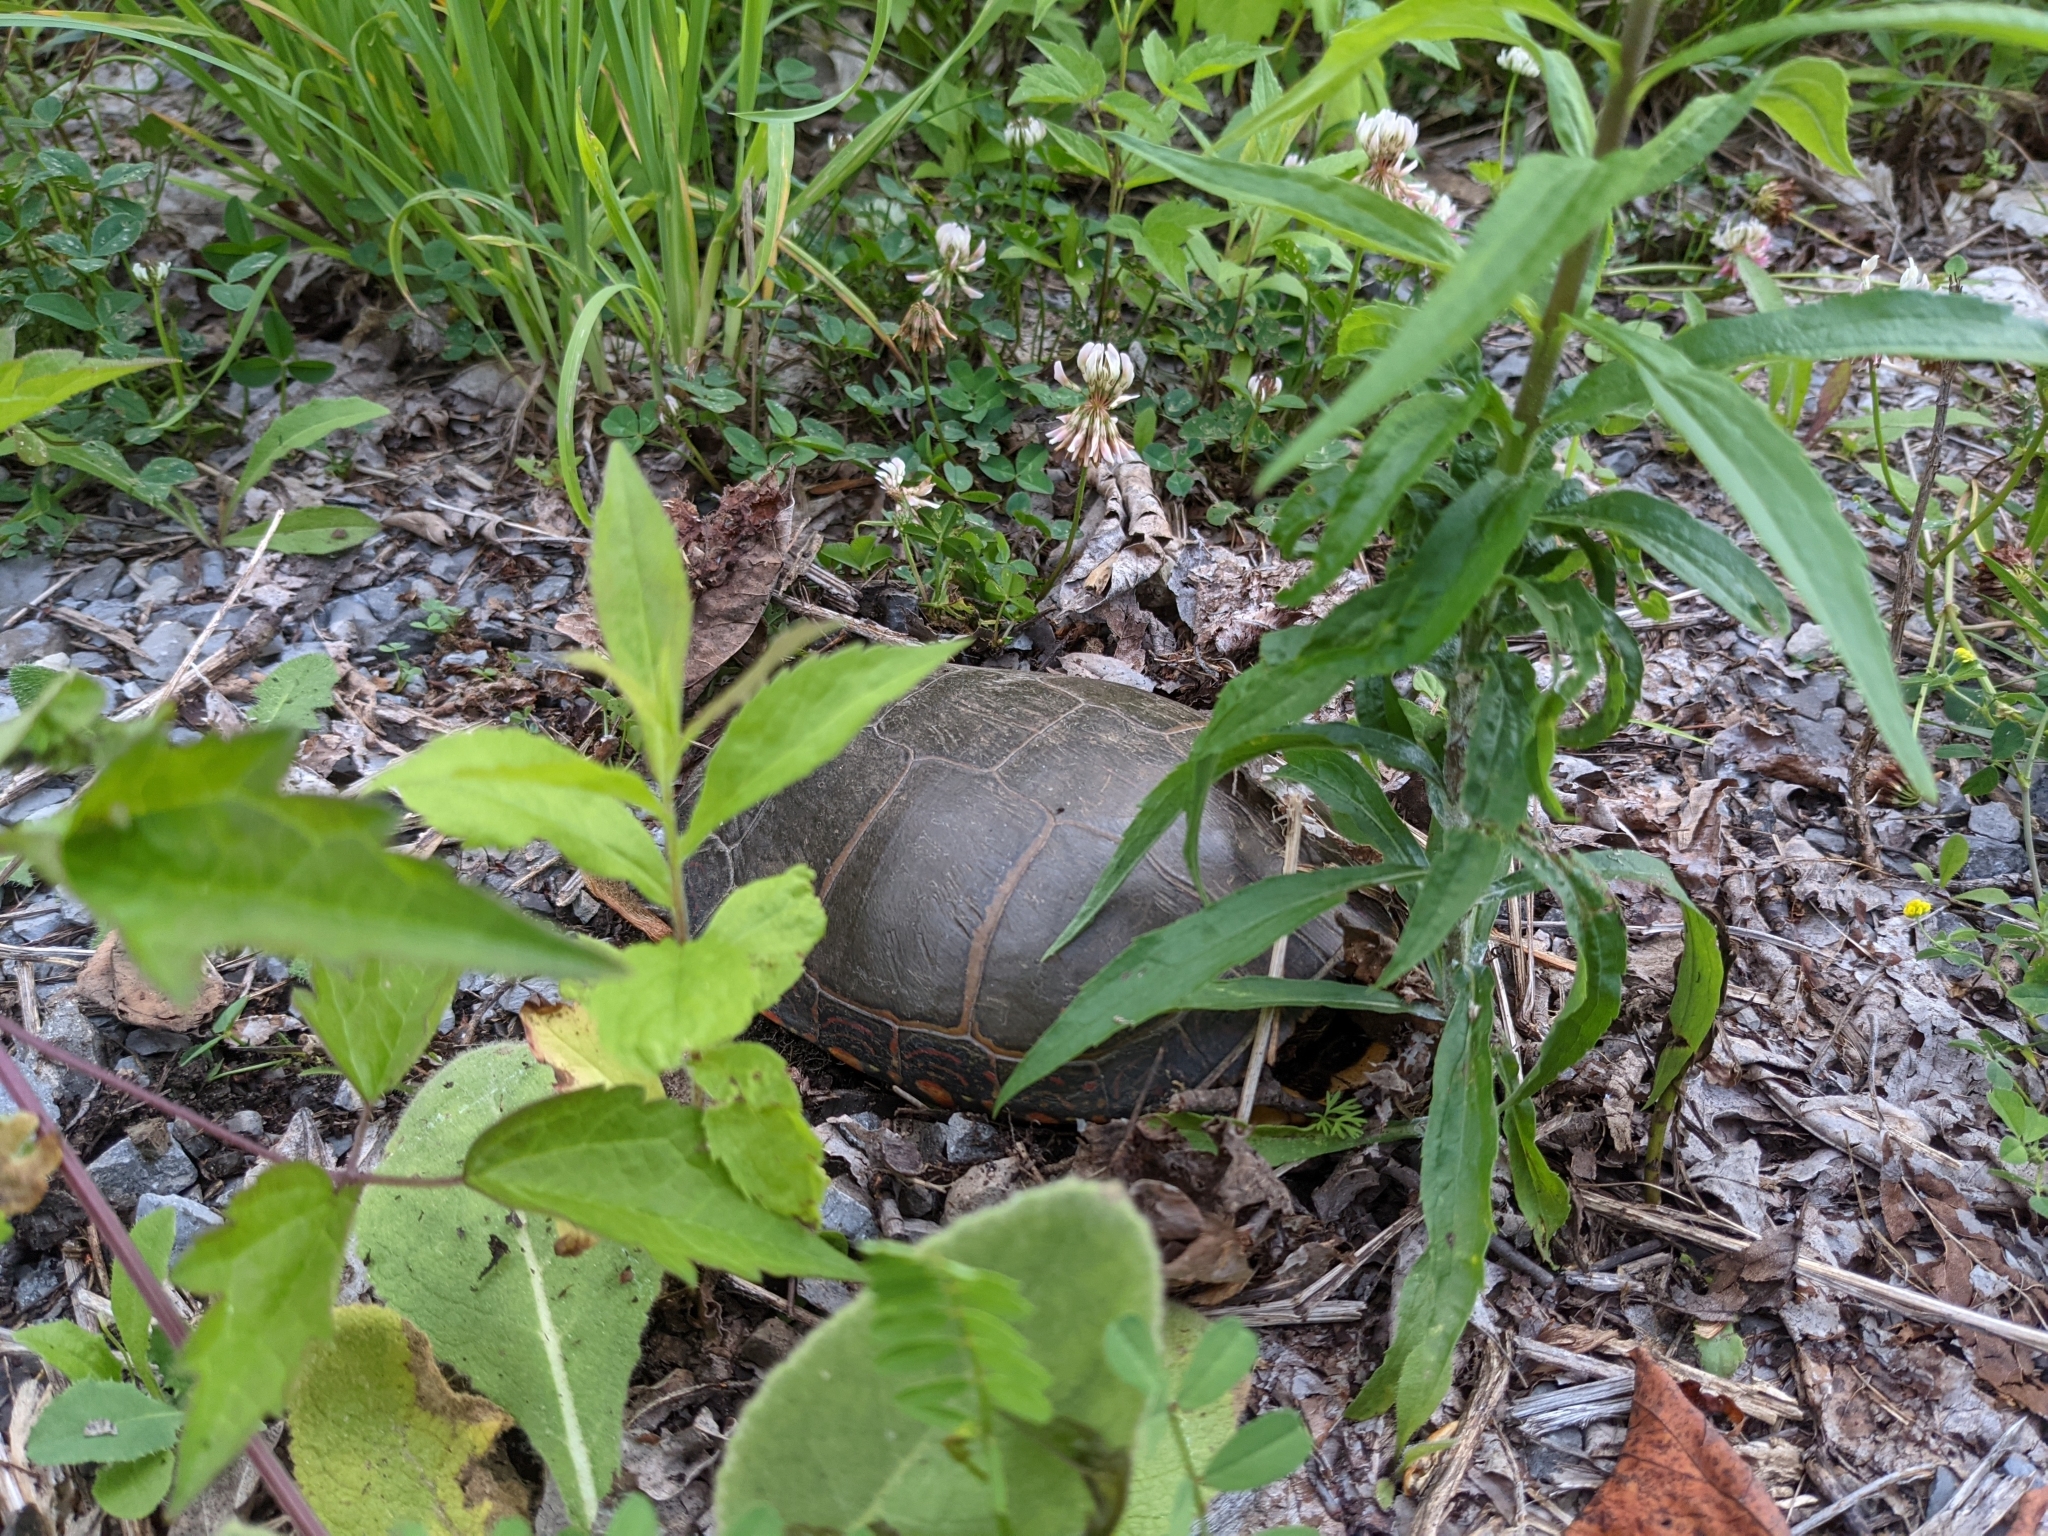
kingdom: Animalia
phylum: Chordata
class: Testudines
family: Emydidae
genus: Chrysemys
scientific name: Chrysemys picta
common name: Painted turtle
